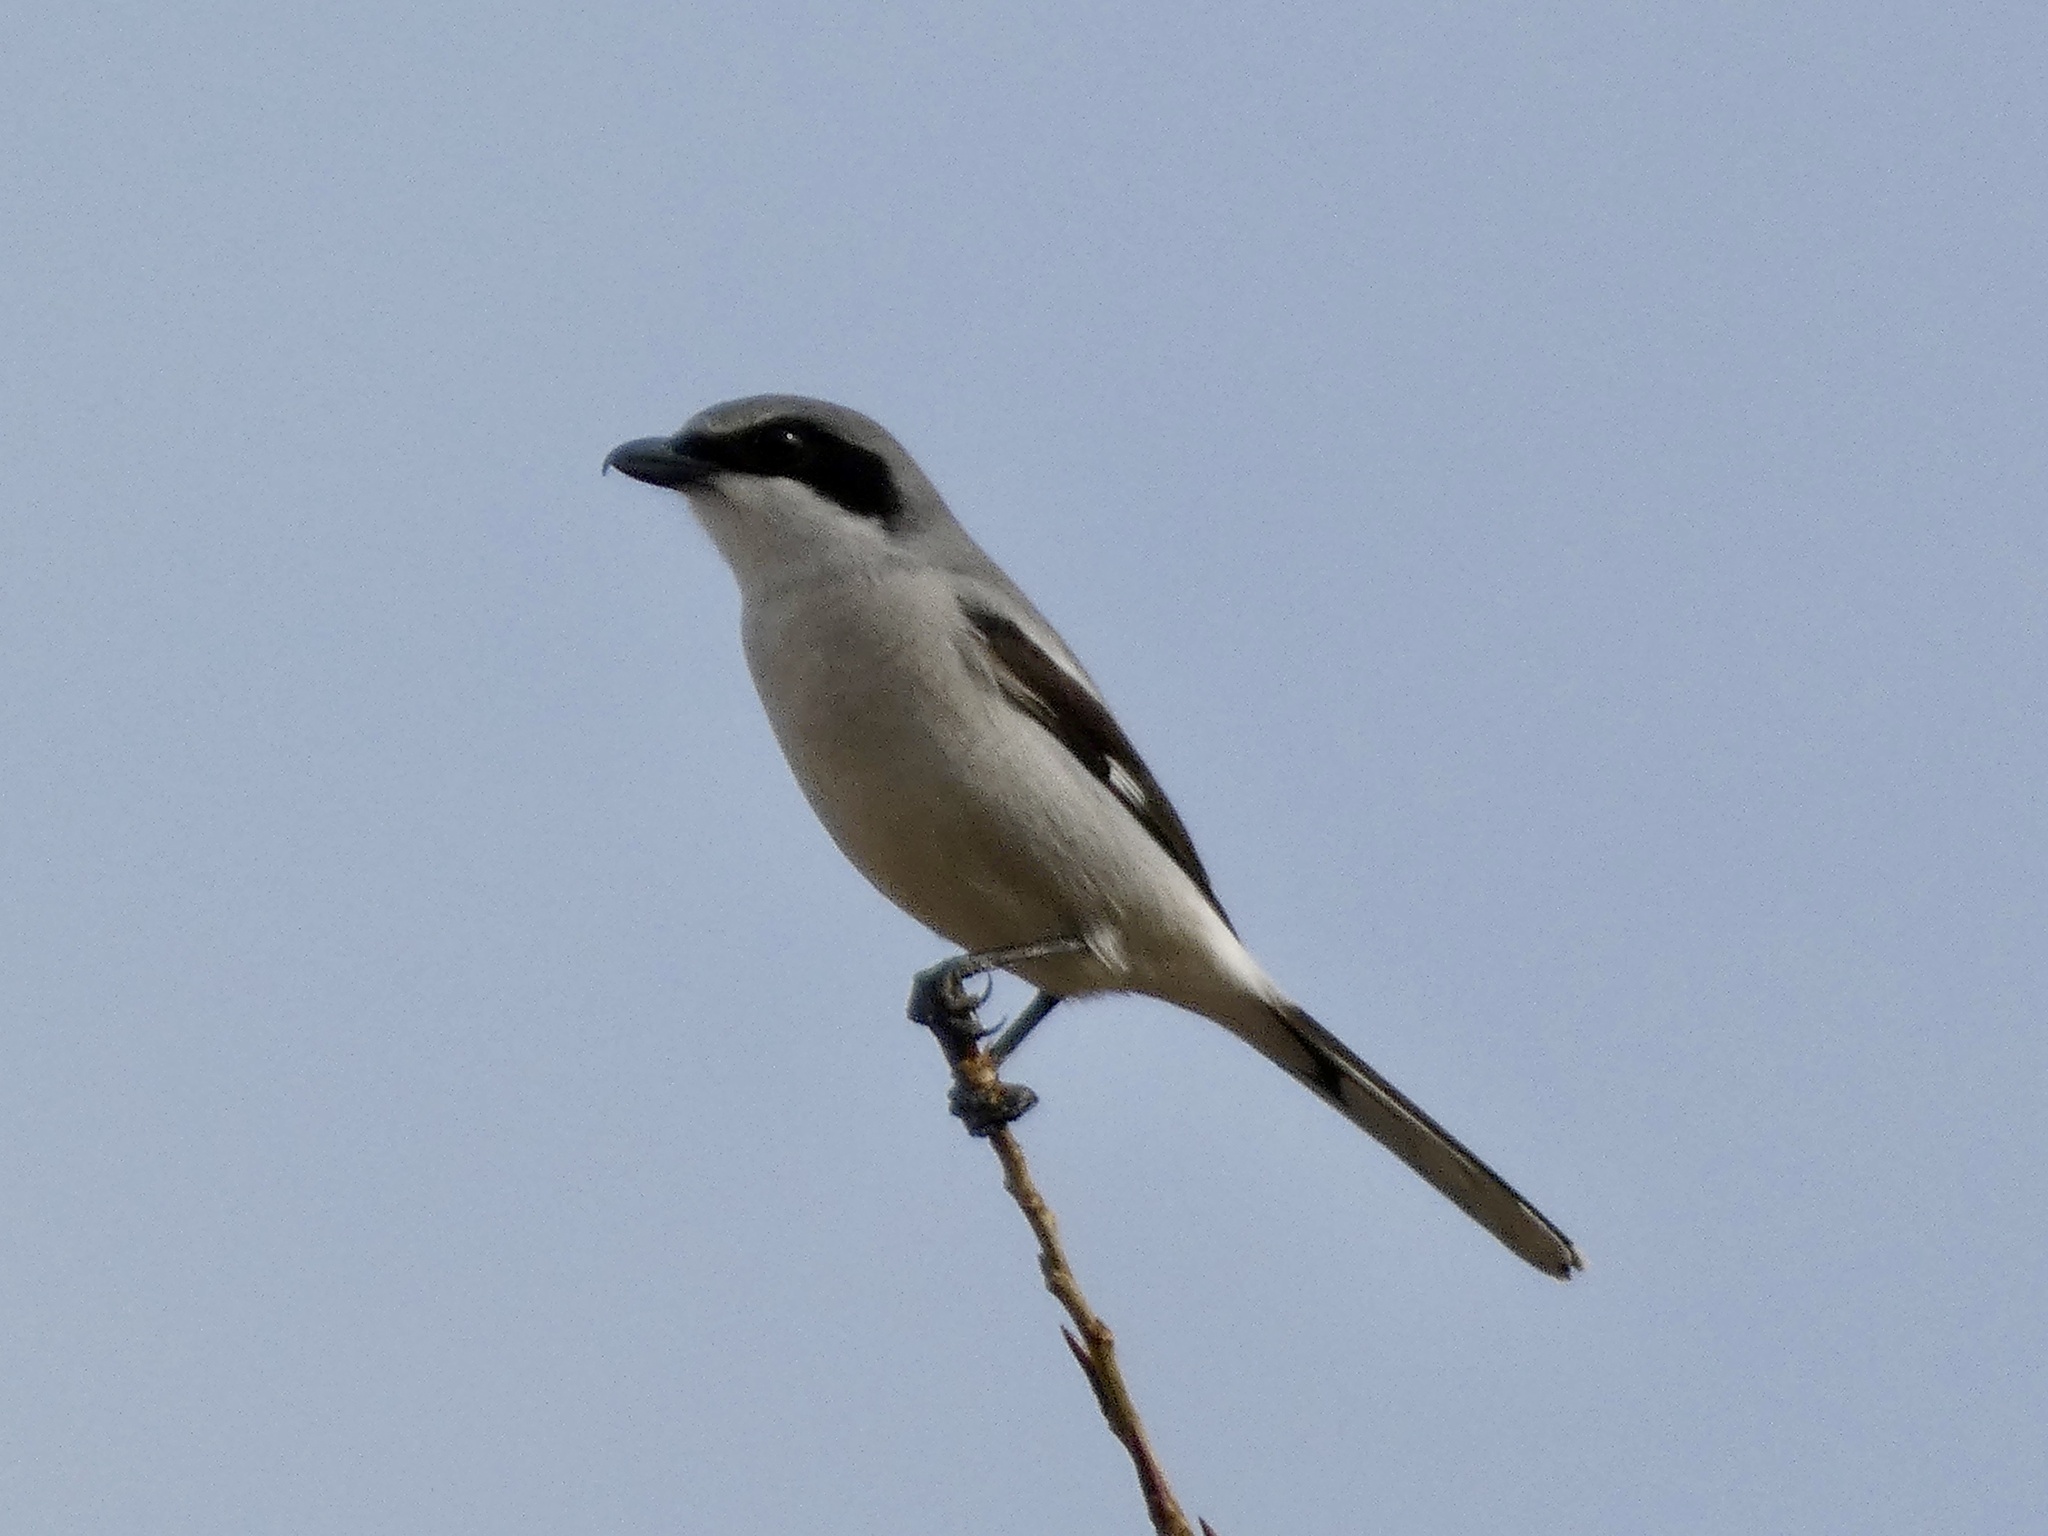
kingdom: Animalia
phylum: Chordata
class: Aves
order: Passeriformes
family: Laniidae
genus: Lanius
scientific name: Lanius ludovicianus
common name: Loggerhead shrike
